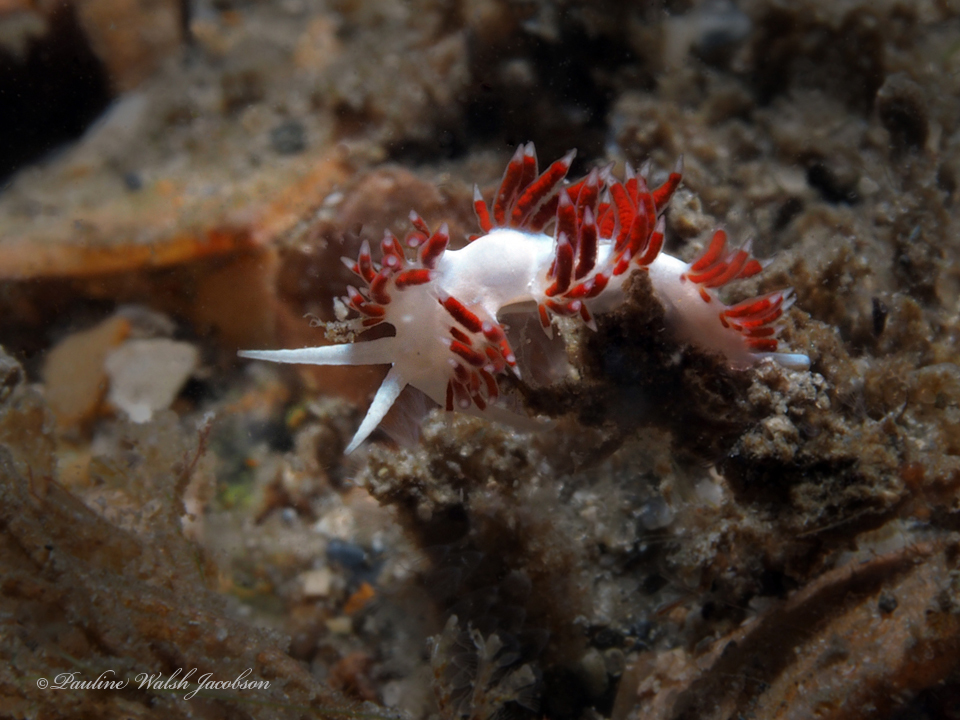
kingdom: Animalia
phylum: Mollusca
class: Gastropoda
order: Nudibranchia
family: Flabellinidae
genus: Flabellina
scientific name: Flabellina dushia
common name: Dushia flabellina
